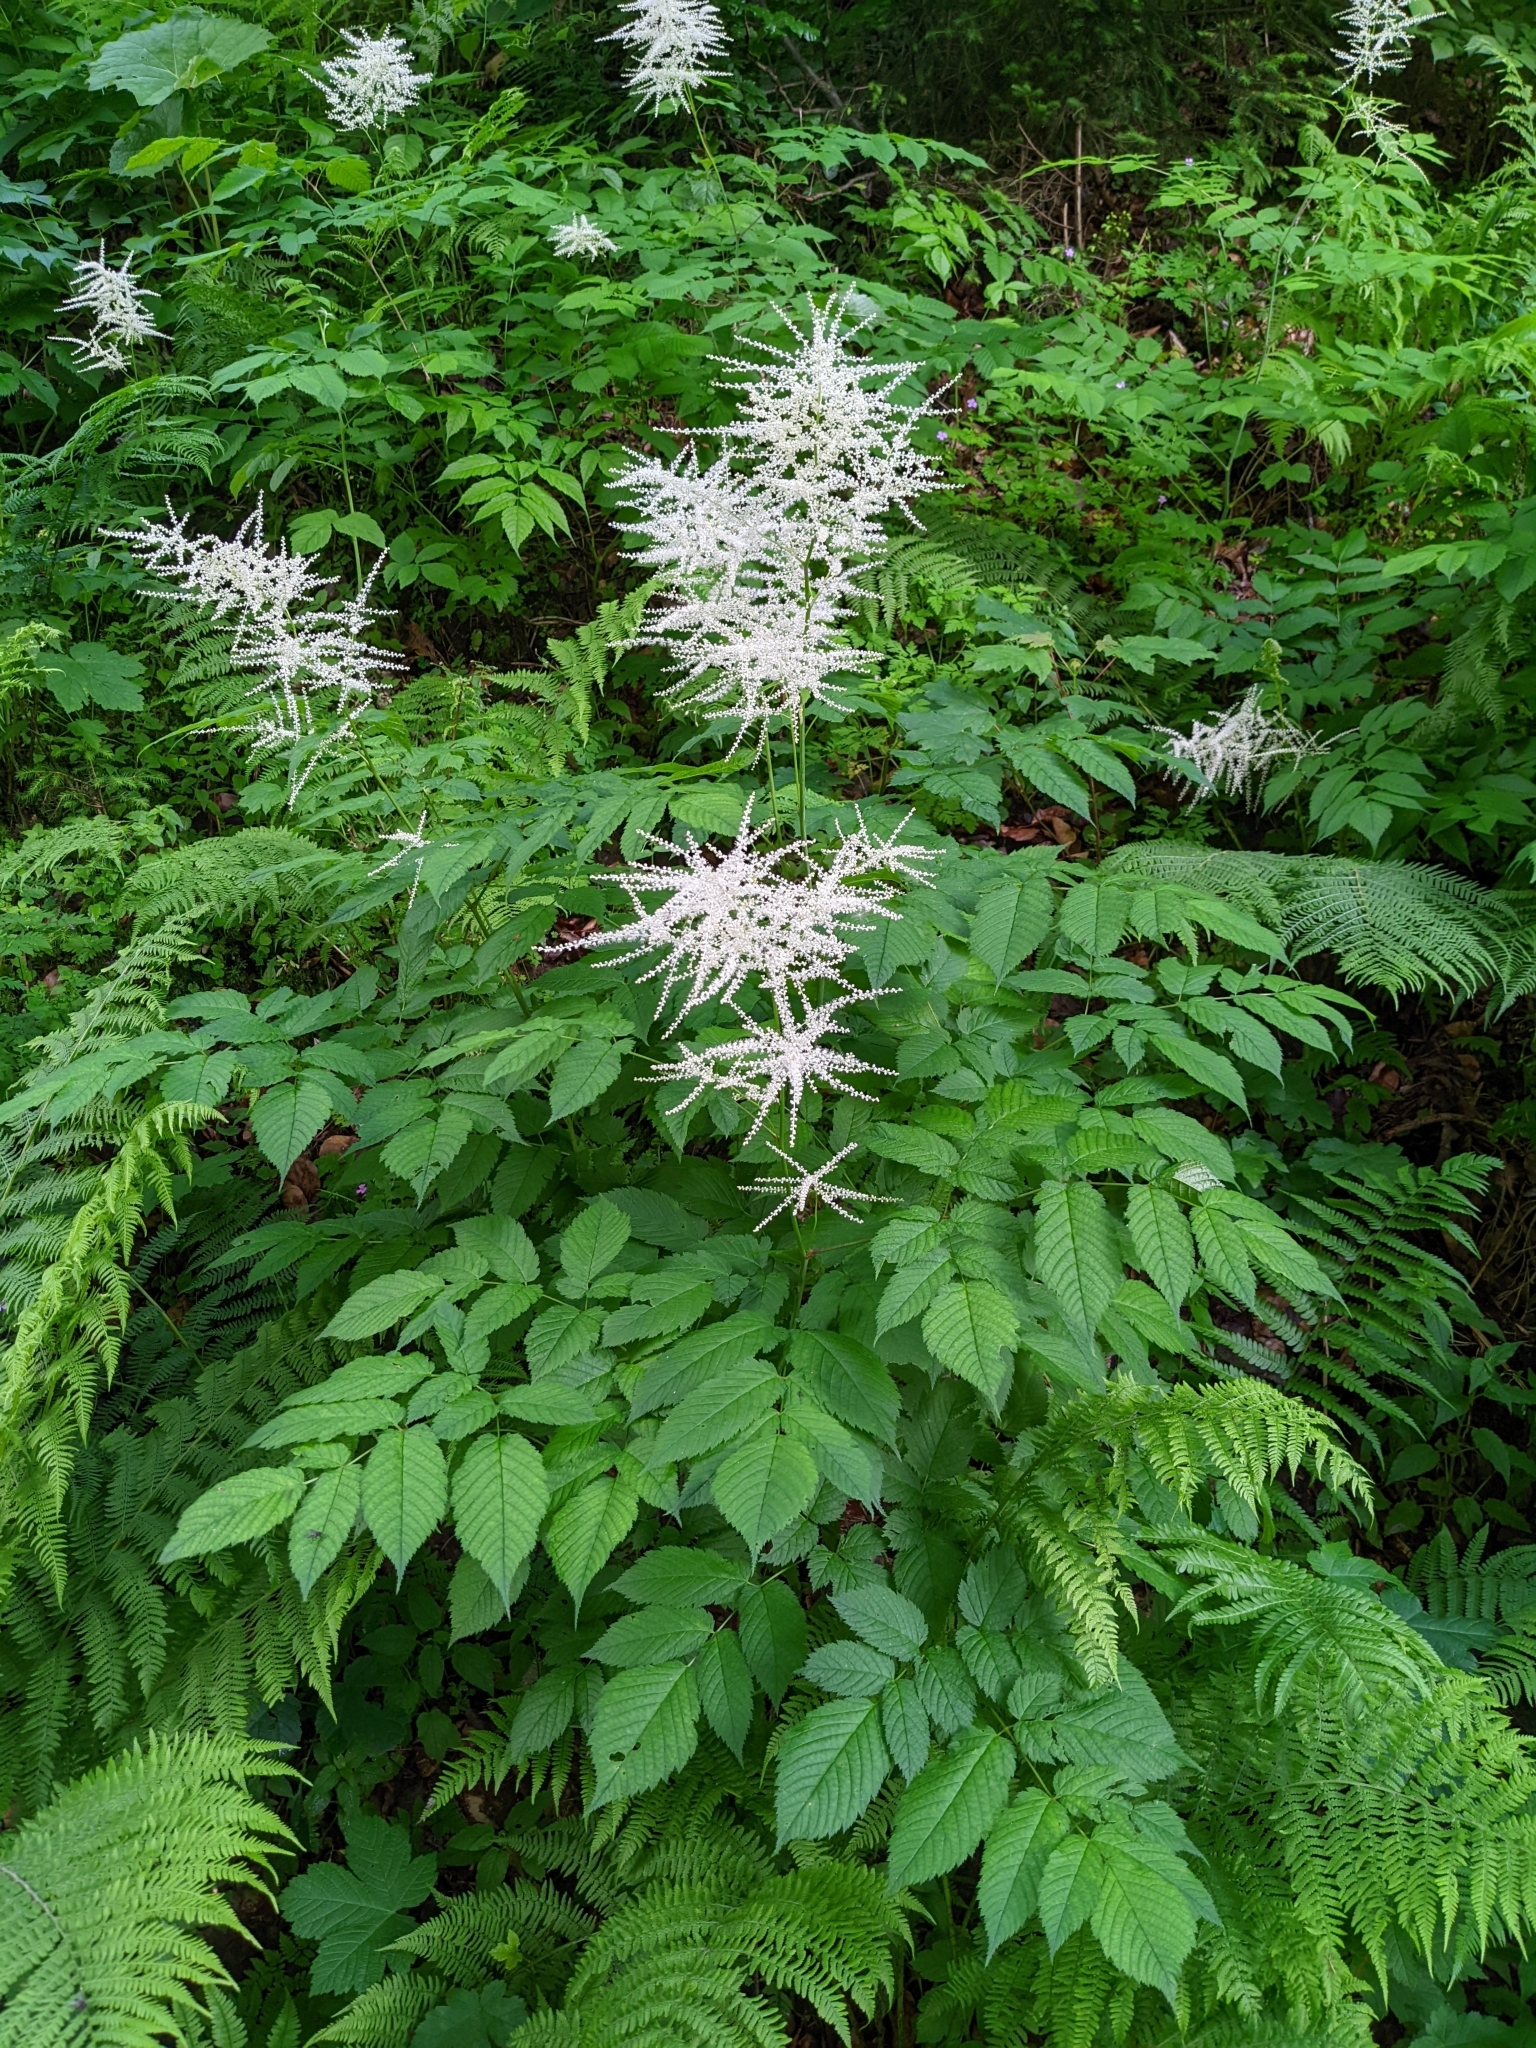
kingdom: Plantae
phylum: Tracheophyta
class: Magnoliopsida
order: Rosales
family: Rosaceae
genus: Aruncus
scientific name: Aruncus dioicus
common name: Buck's-beard
